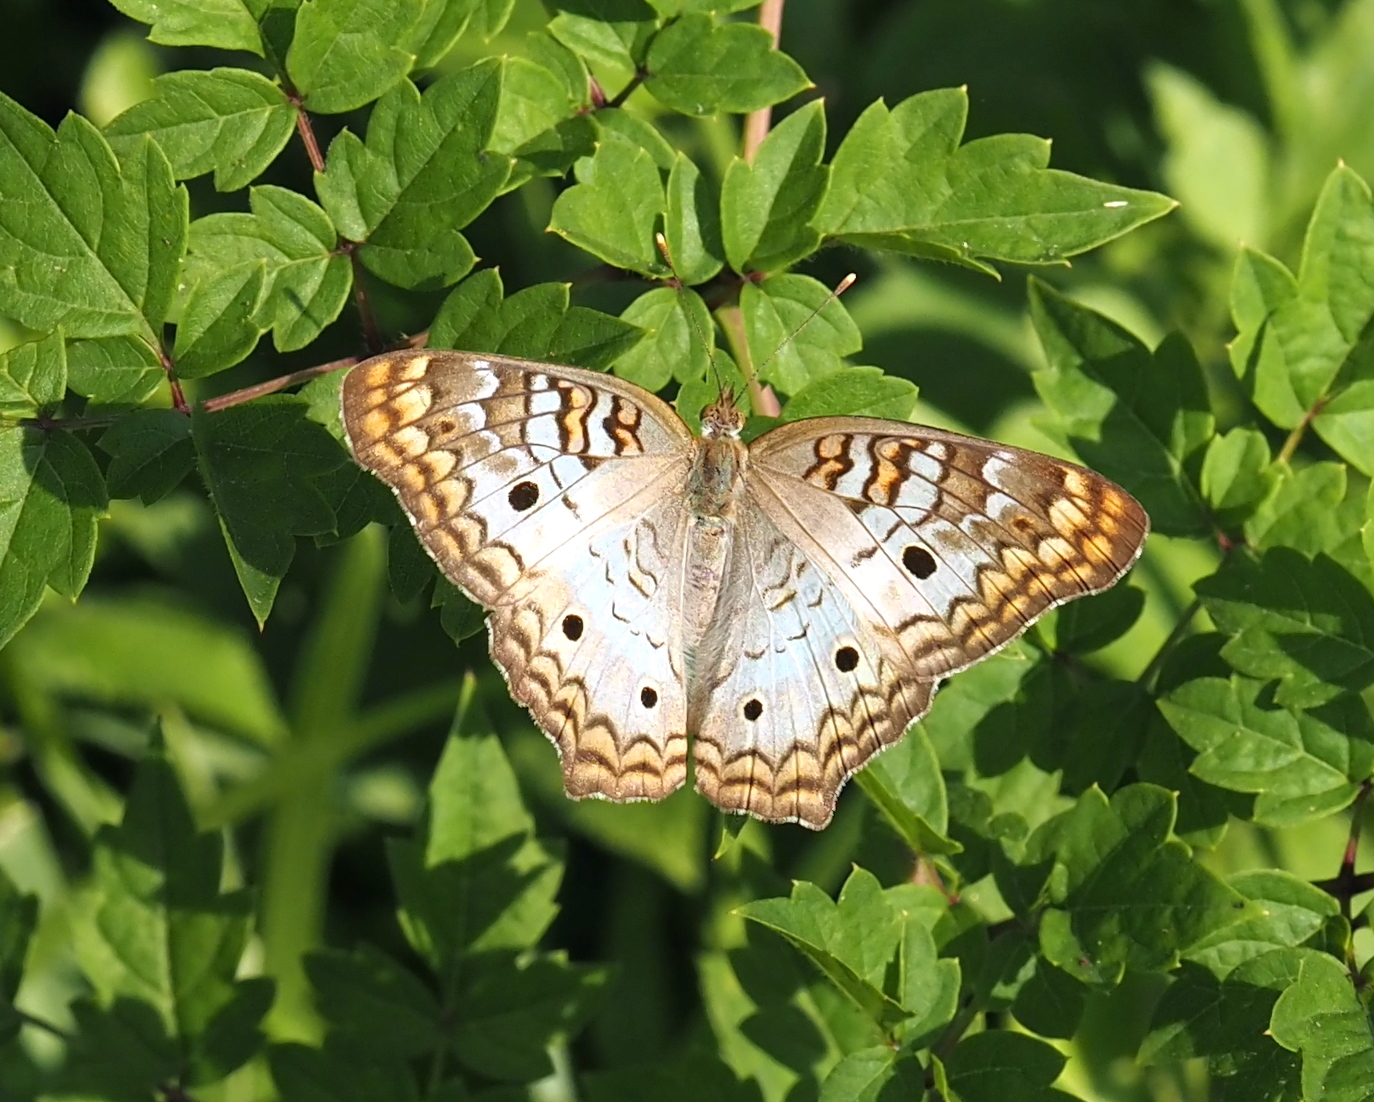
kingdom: Animalia
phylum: Arthropoda
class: Insecta
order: Lepidoptera
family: Nymphalidae
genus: Anartia
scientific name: Anartia jatrophae
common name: White peacock
